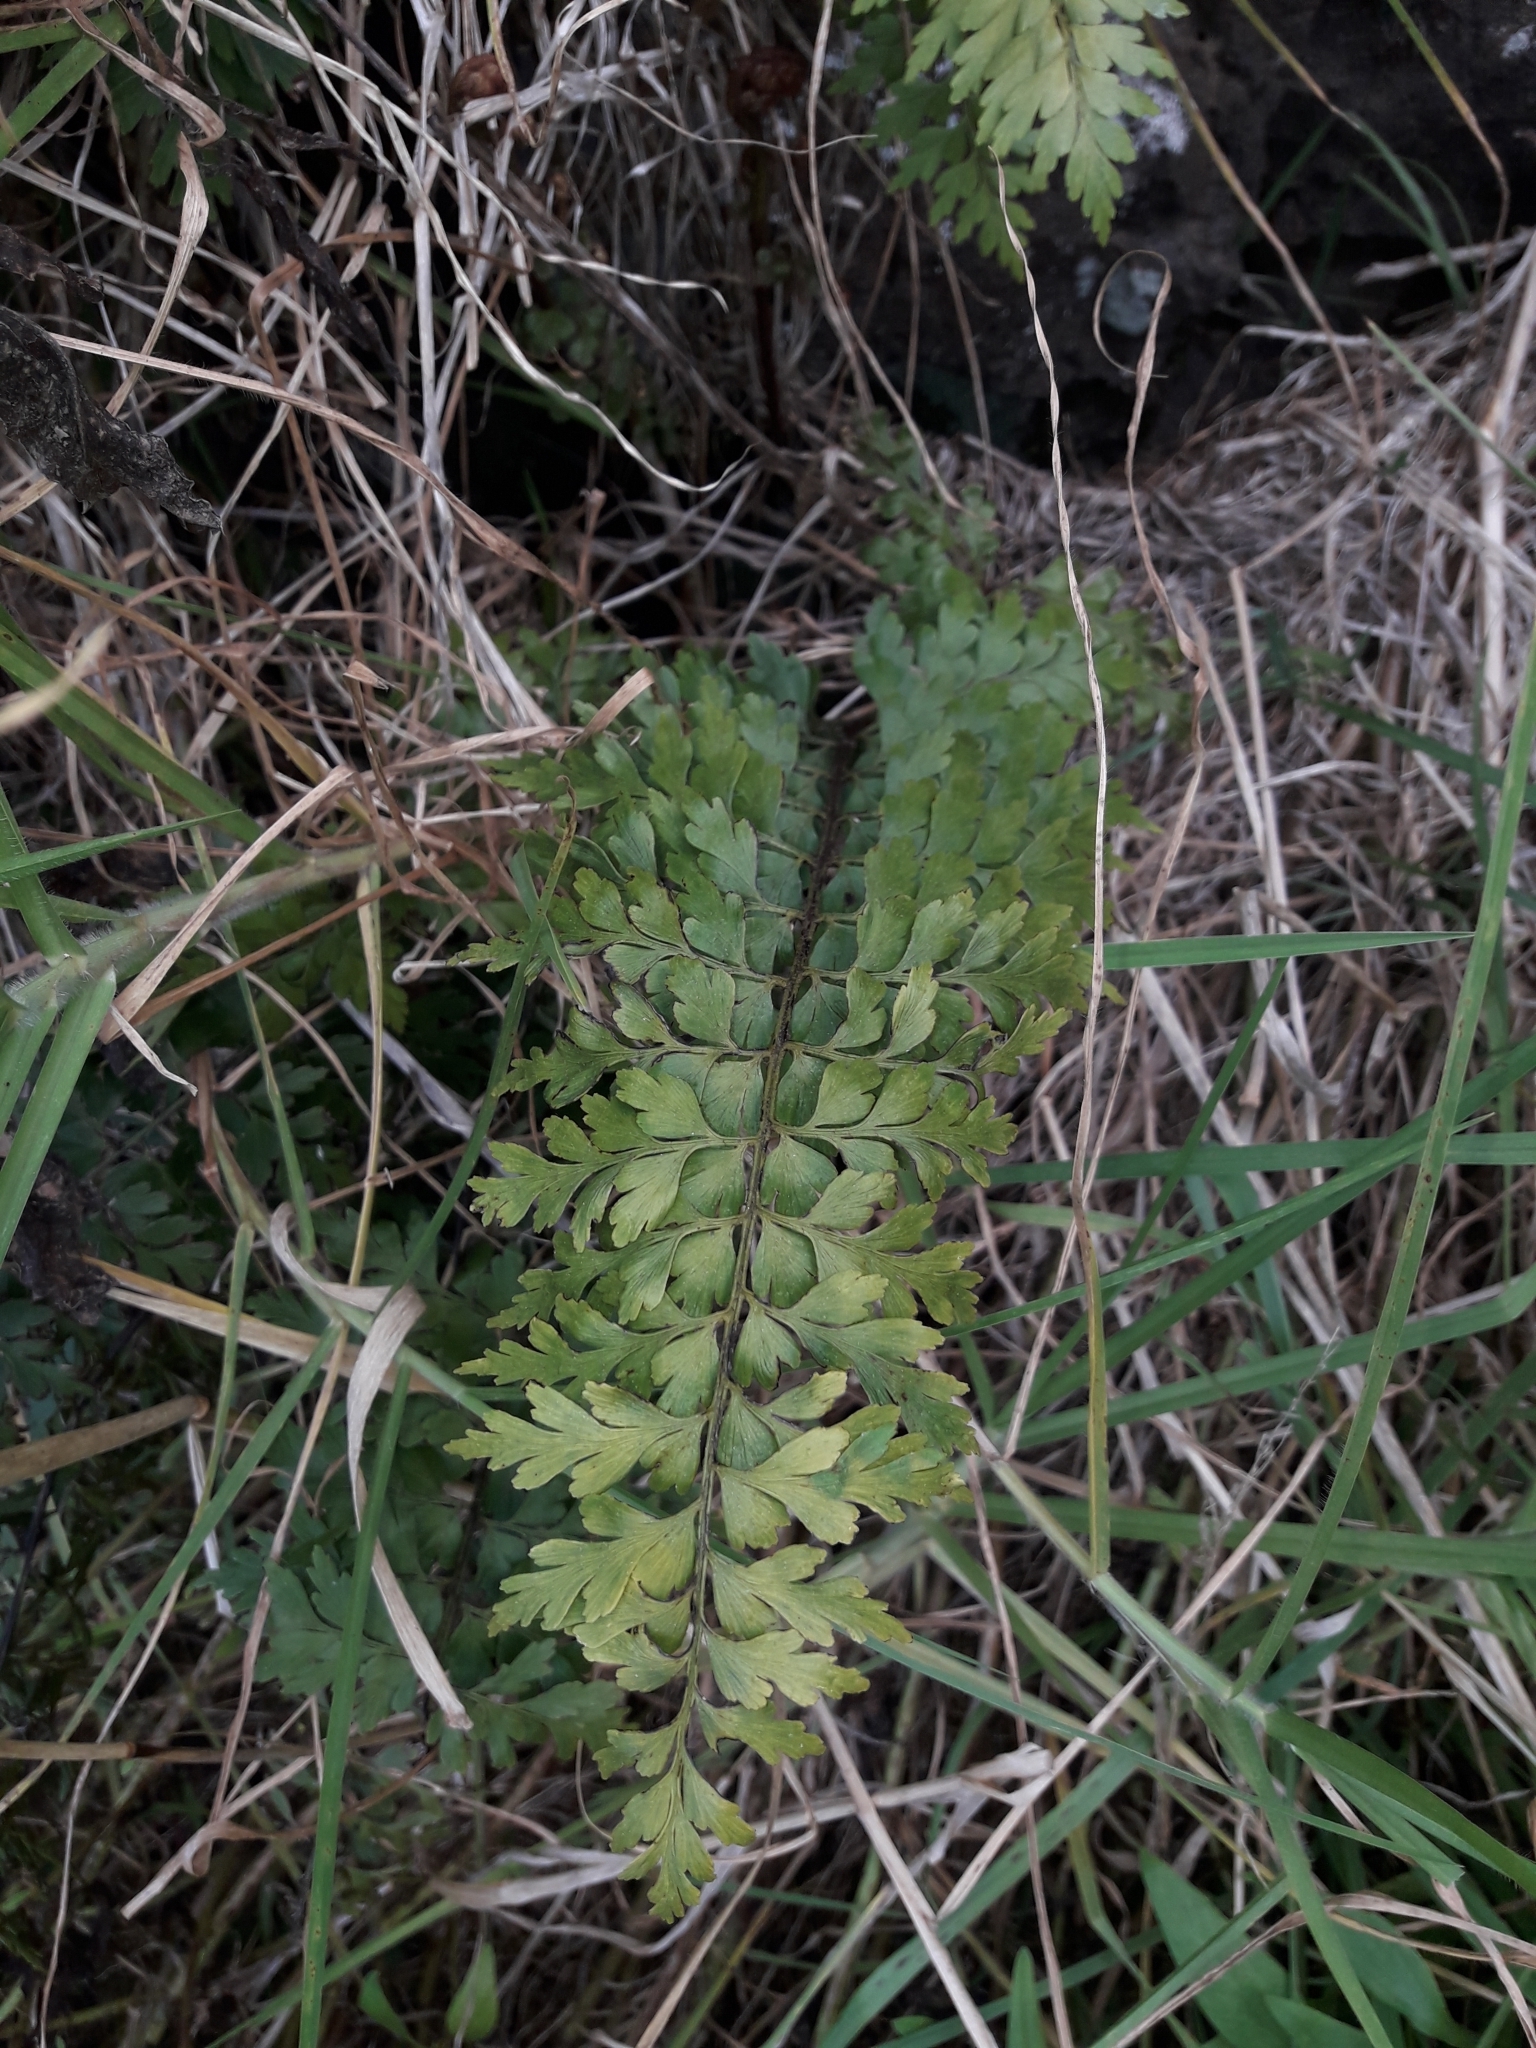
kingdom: Plantae
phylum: Tracheophyta
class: Polypodiopsida
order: Polypodiales
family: Aspleniaceae
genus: Asplenium
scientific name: Asplenium aethiopicum
